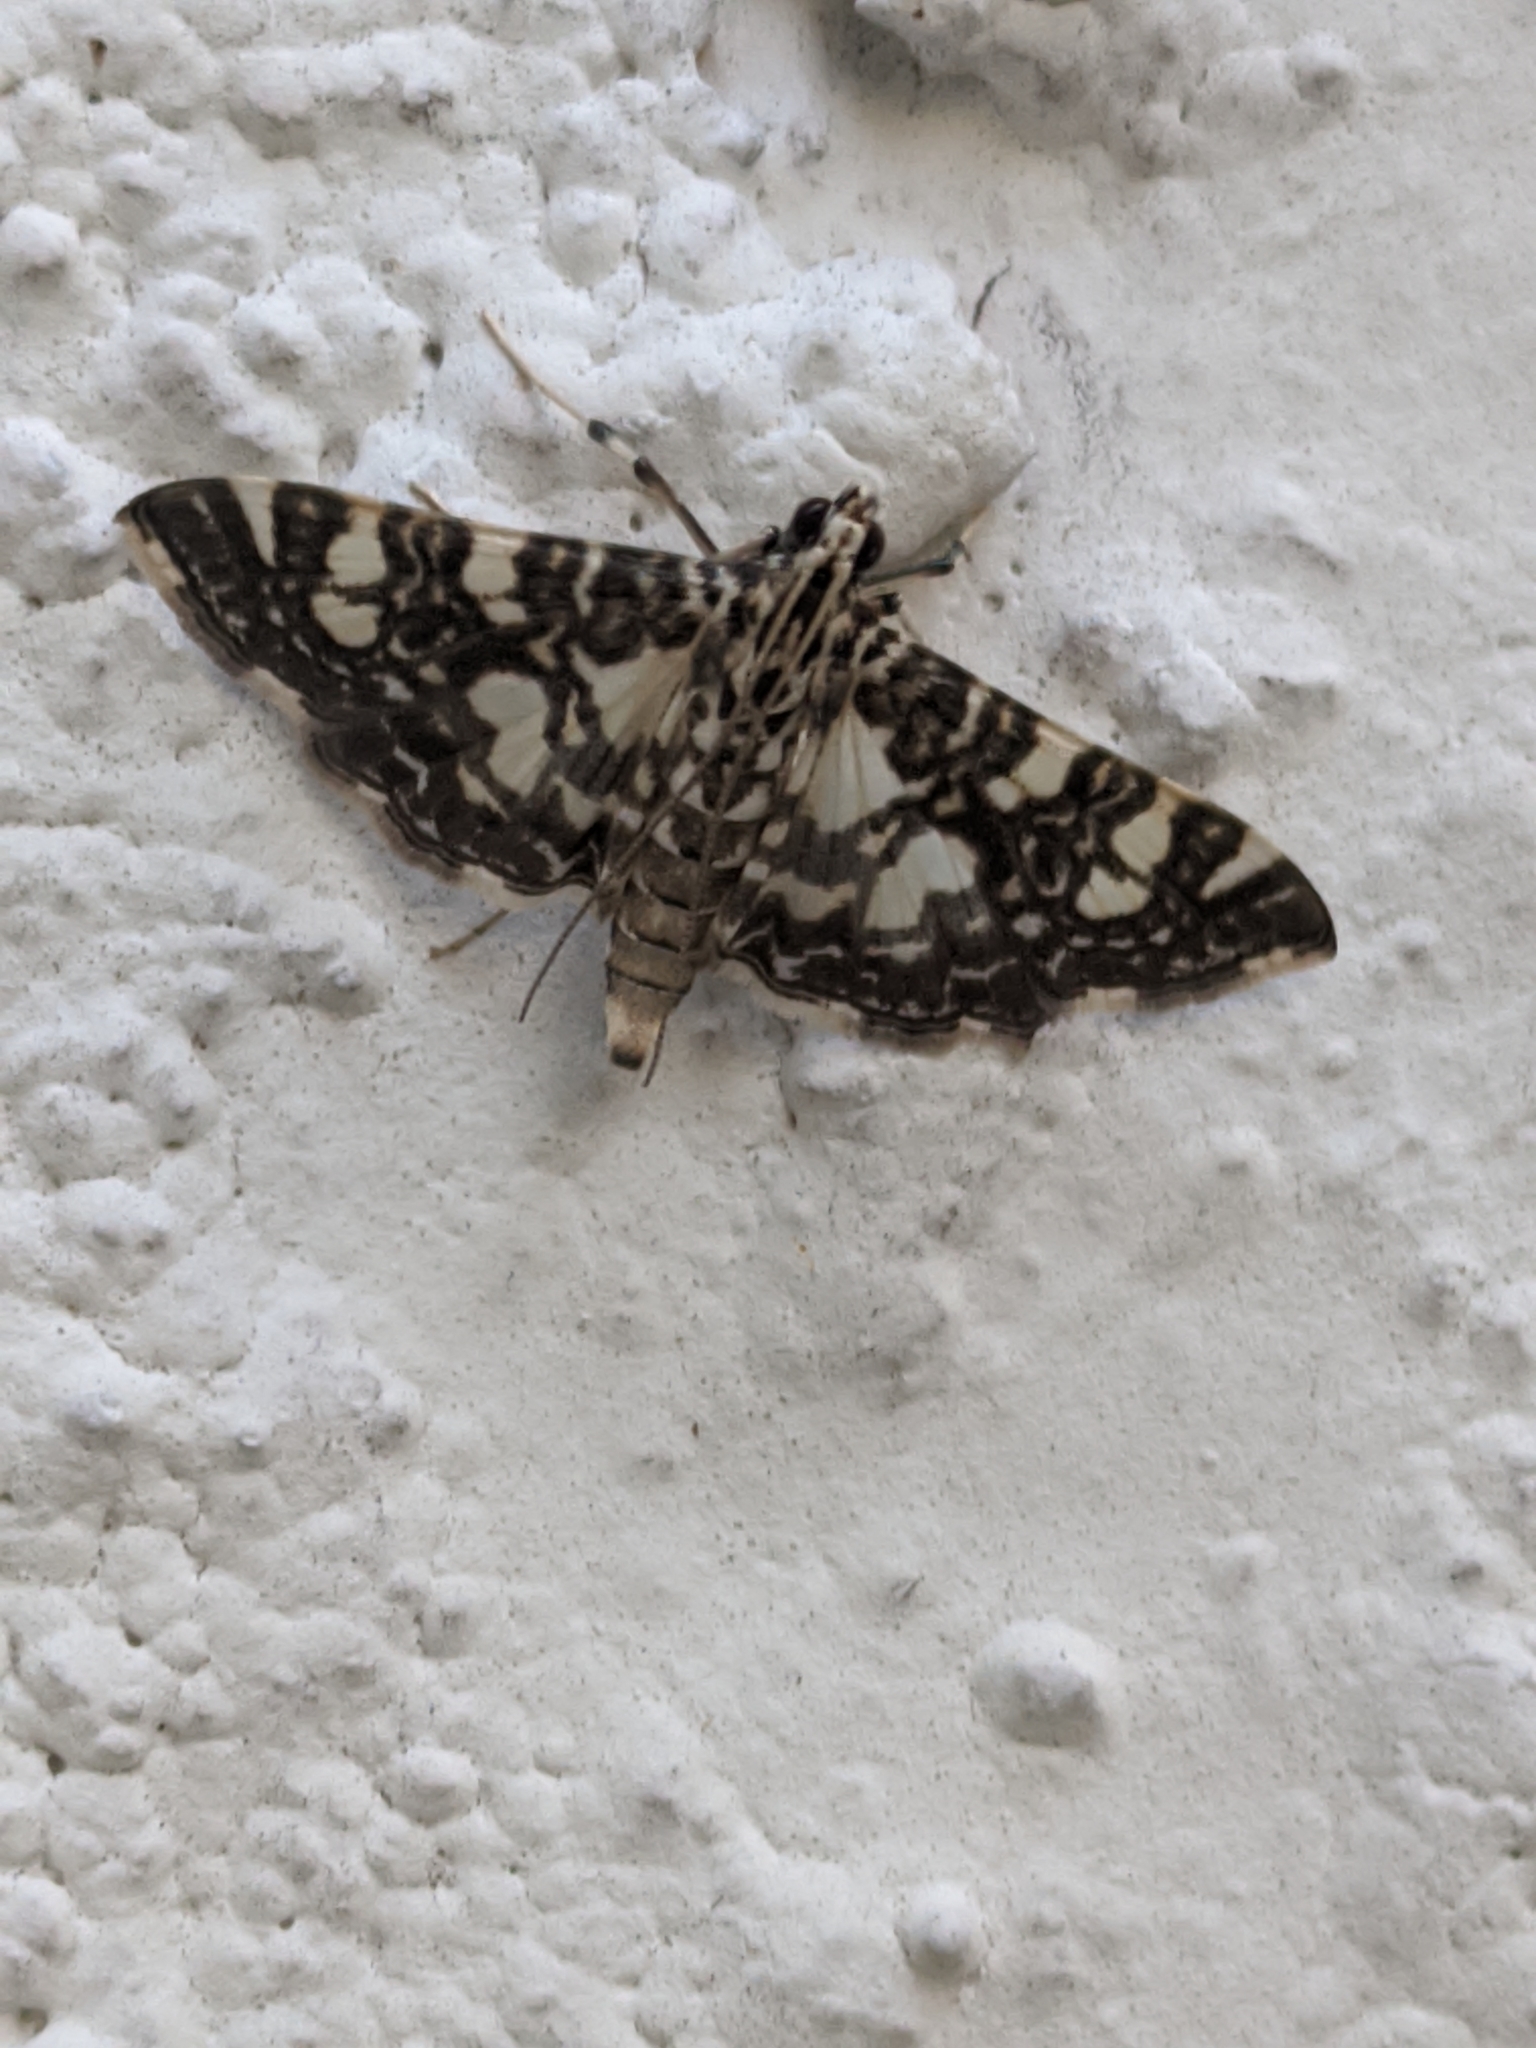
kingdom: Animalia
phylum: Arthropoda
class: Insecta
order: Lepidoptera
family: Crambidae
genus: Glyphodes
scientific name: Glyphodes onychinalis
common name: Swan plant moth
